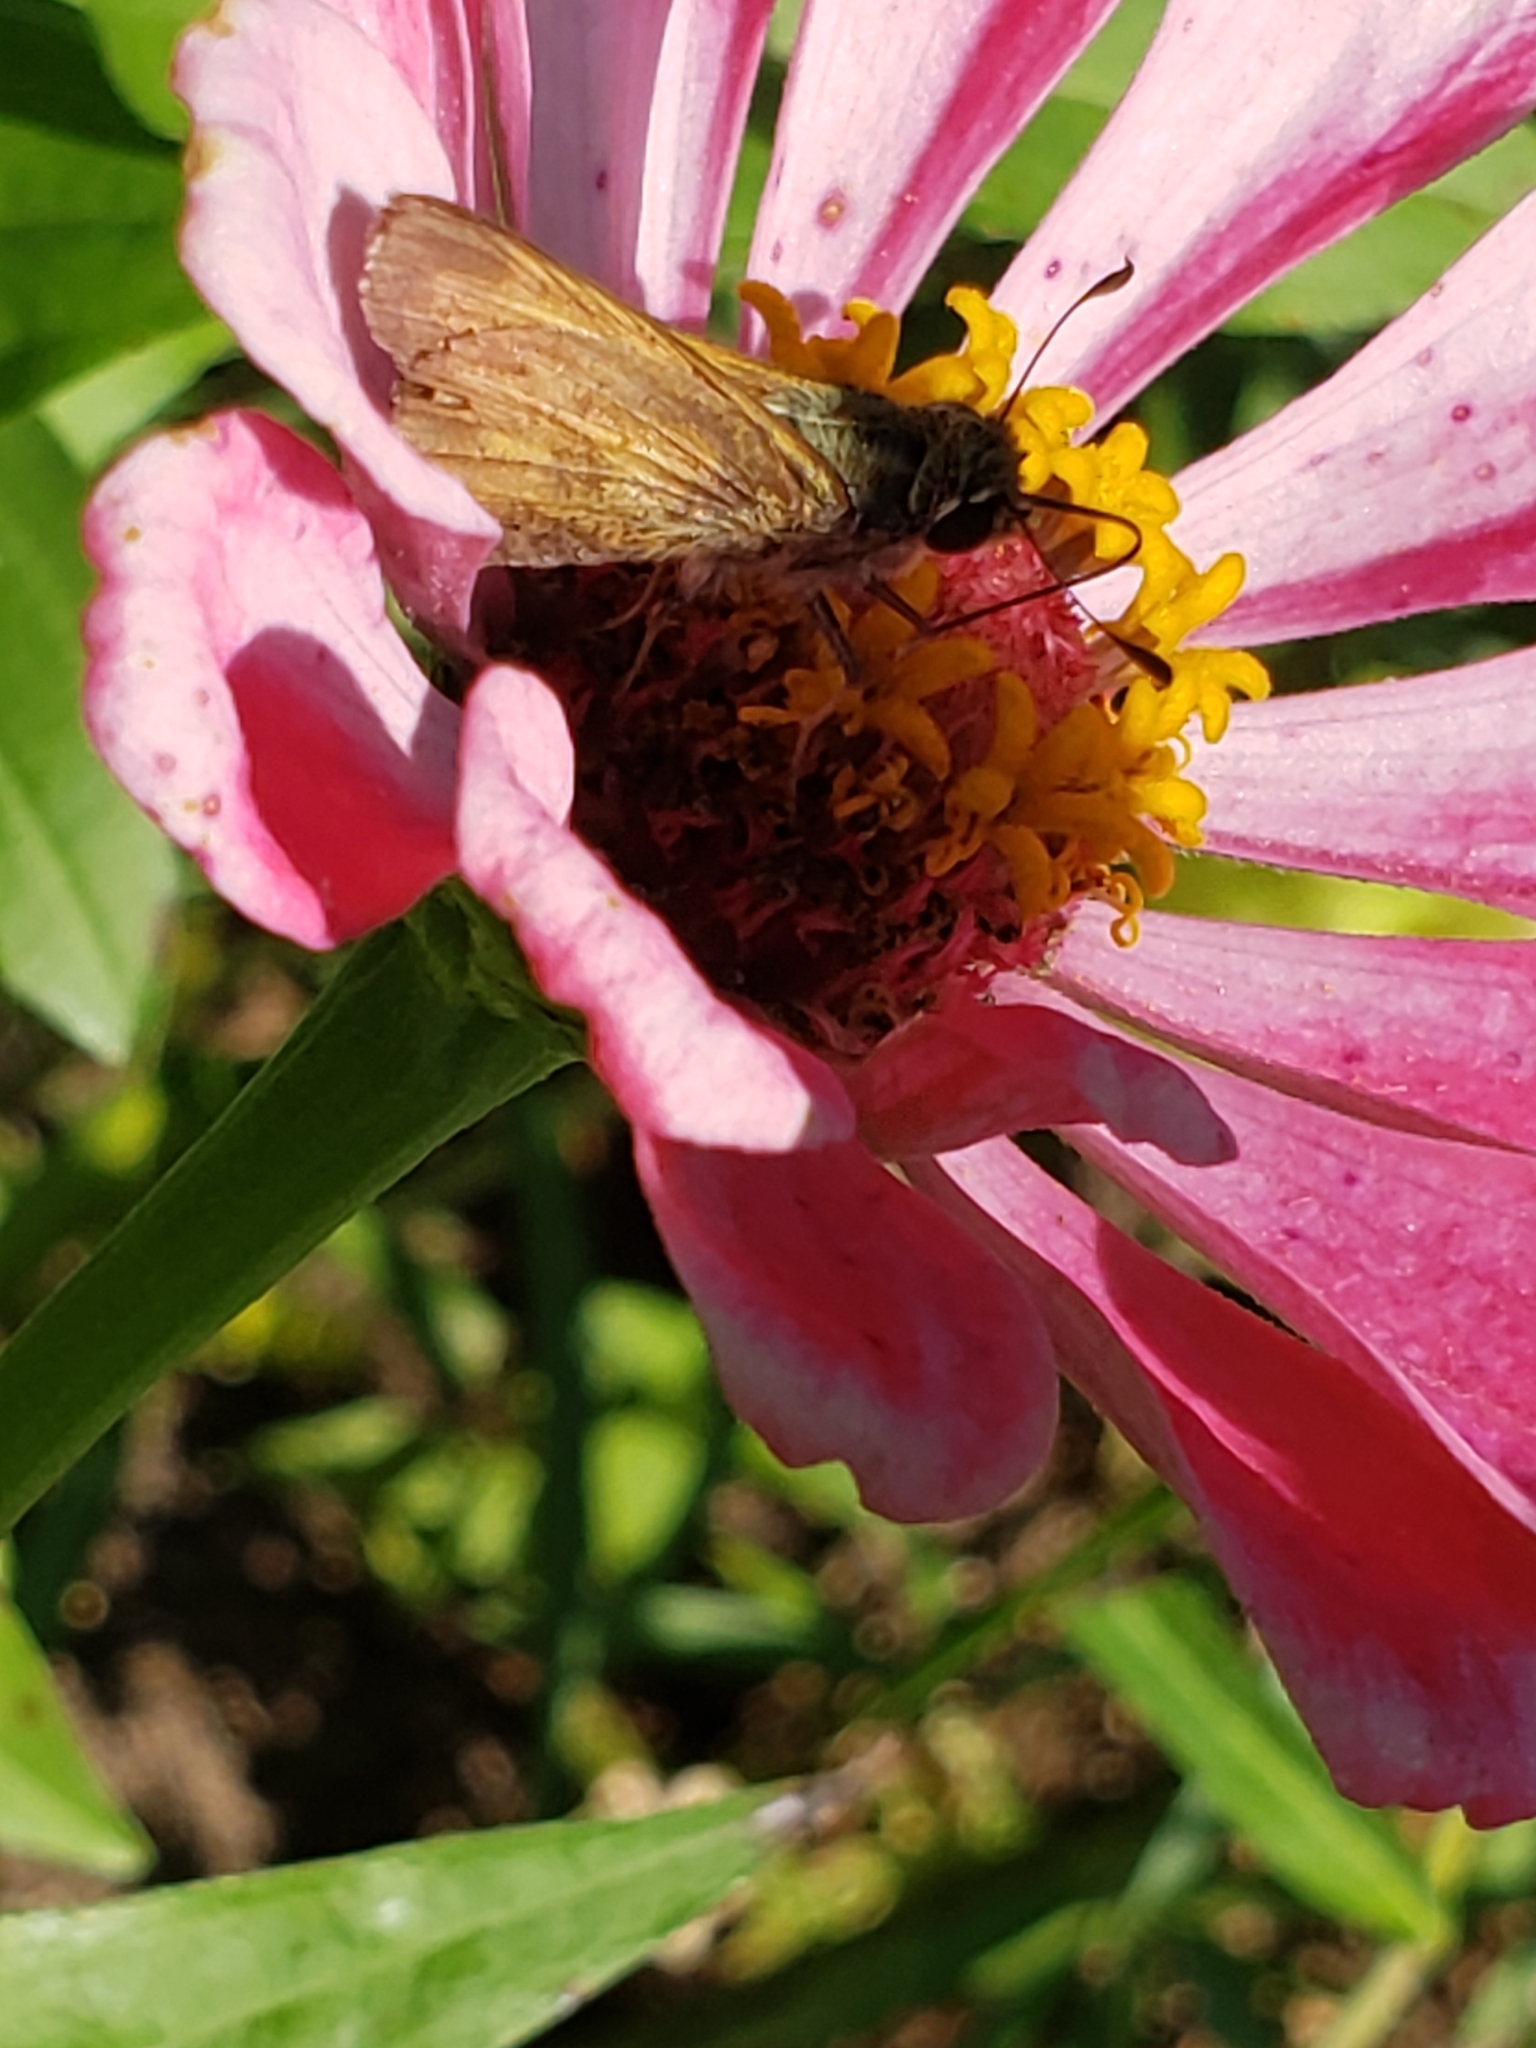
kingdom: Animalia
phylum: Arthropoda
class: Insecta
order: Lepidoptera
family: Hesperiidae
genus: Atalopedes
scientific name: Atalopedes
